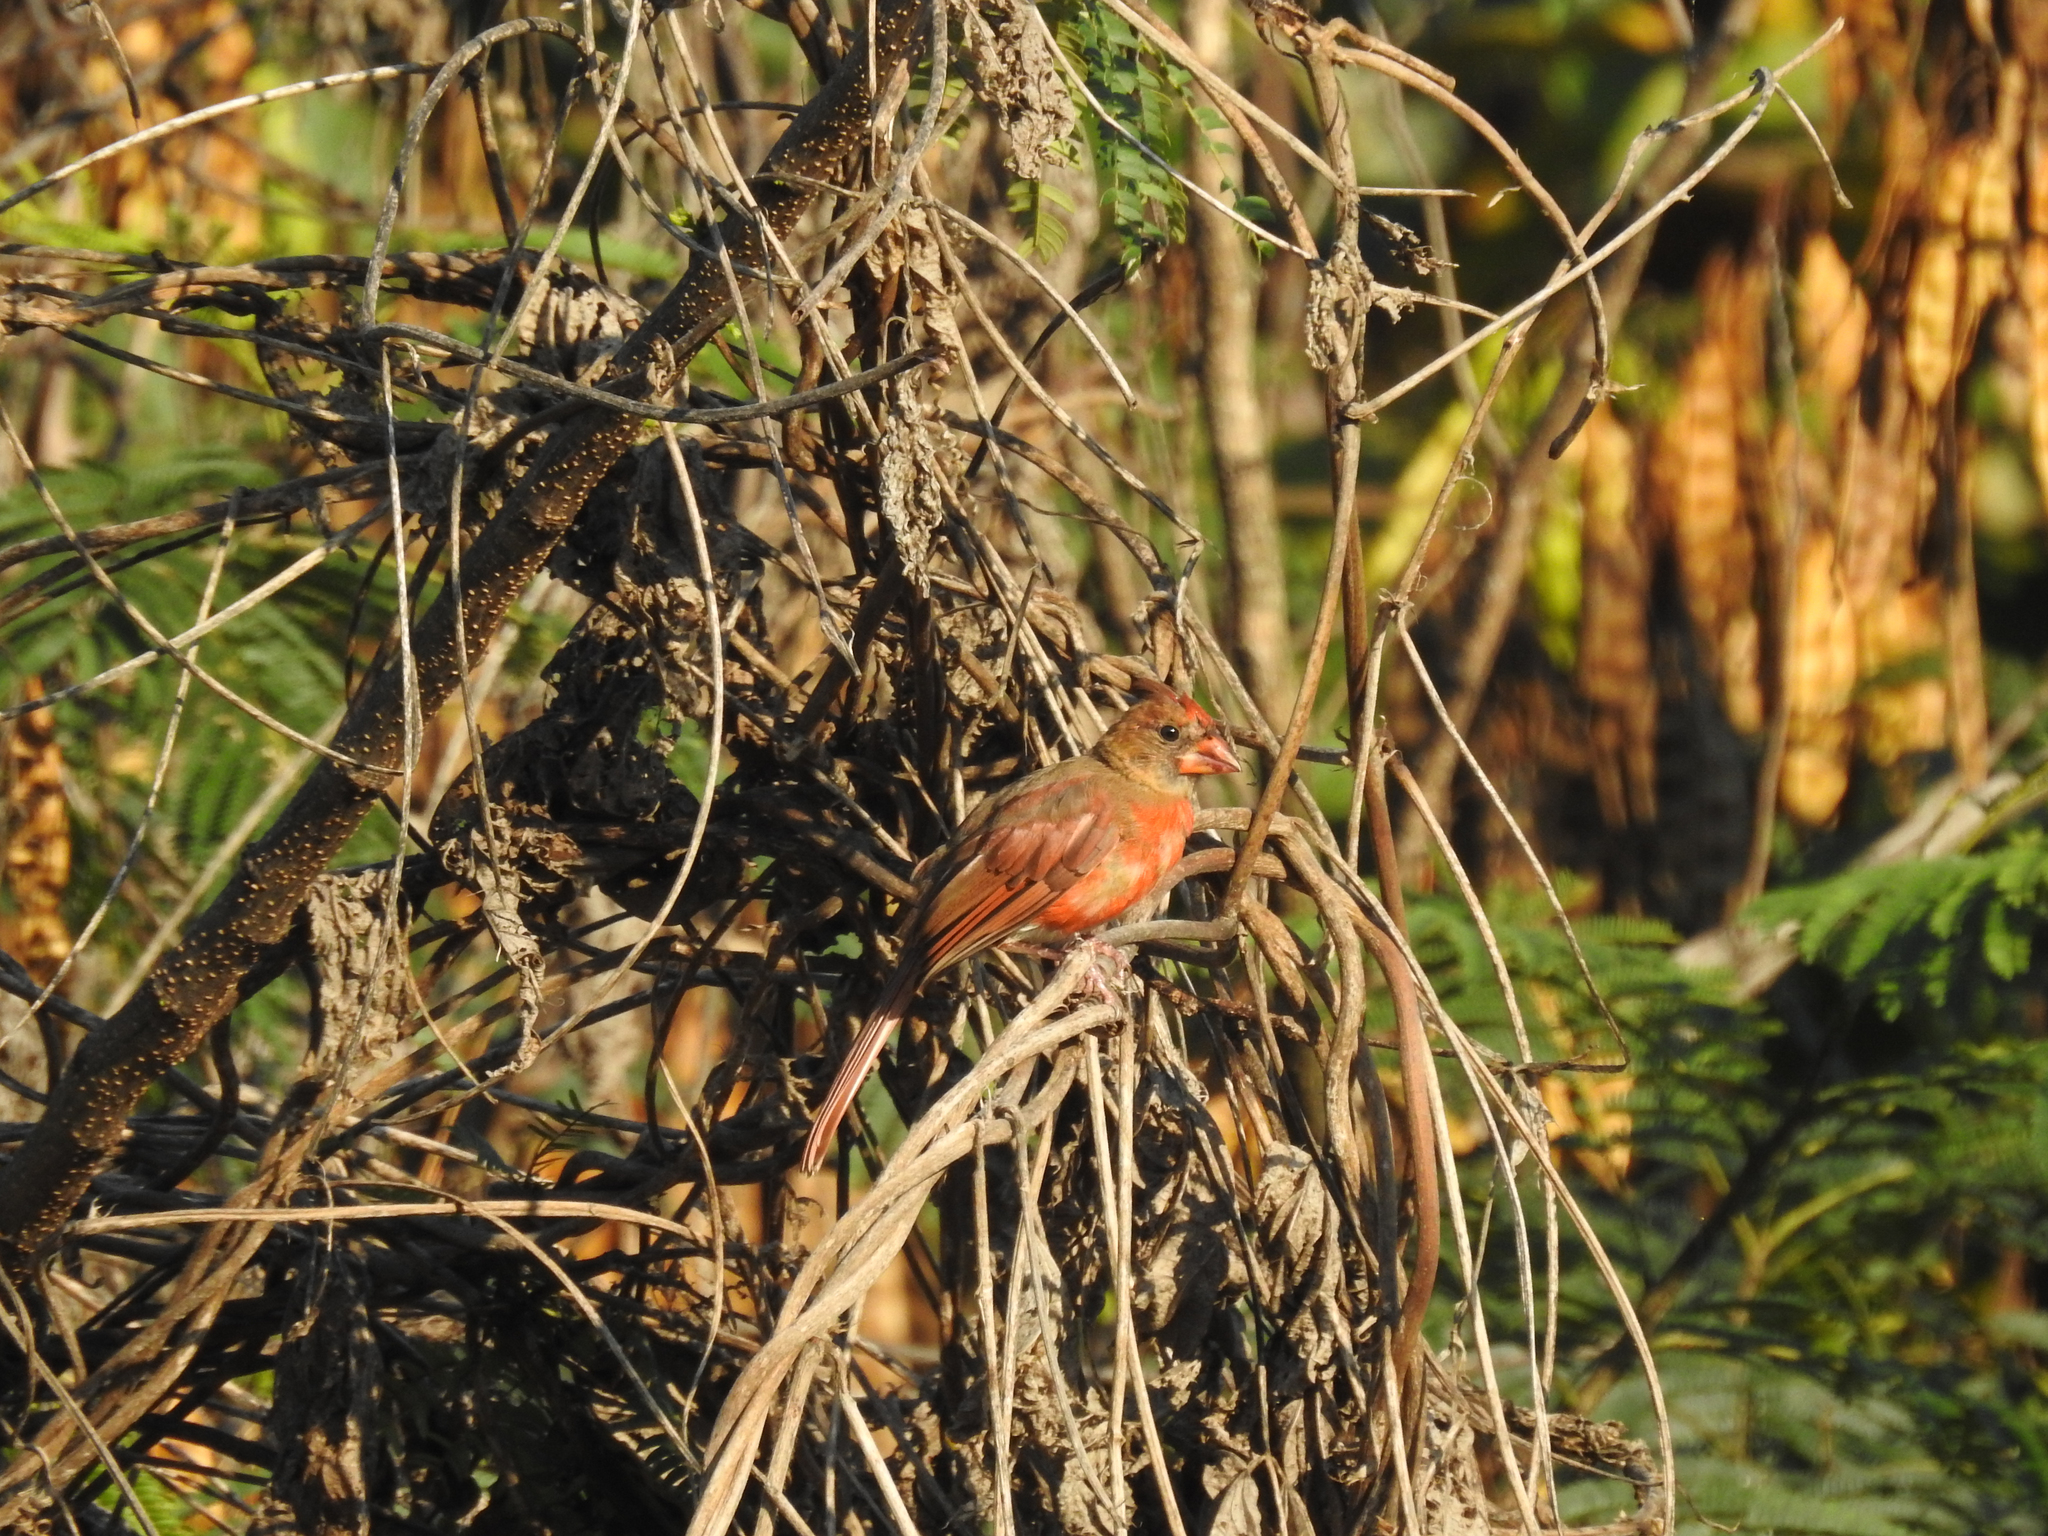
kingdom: Animalia
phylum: Chordata
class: Aves
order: Passeriformes
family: Cardinalidae
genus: Cardinalis
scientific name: Cardinalis cardinalis
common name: Northern cardinal
